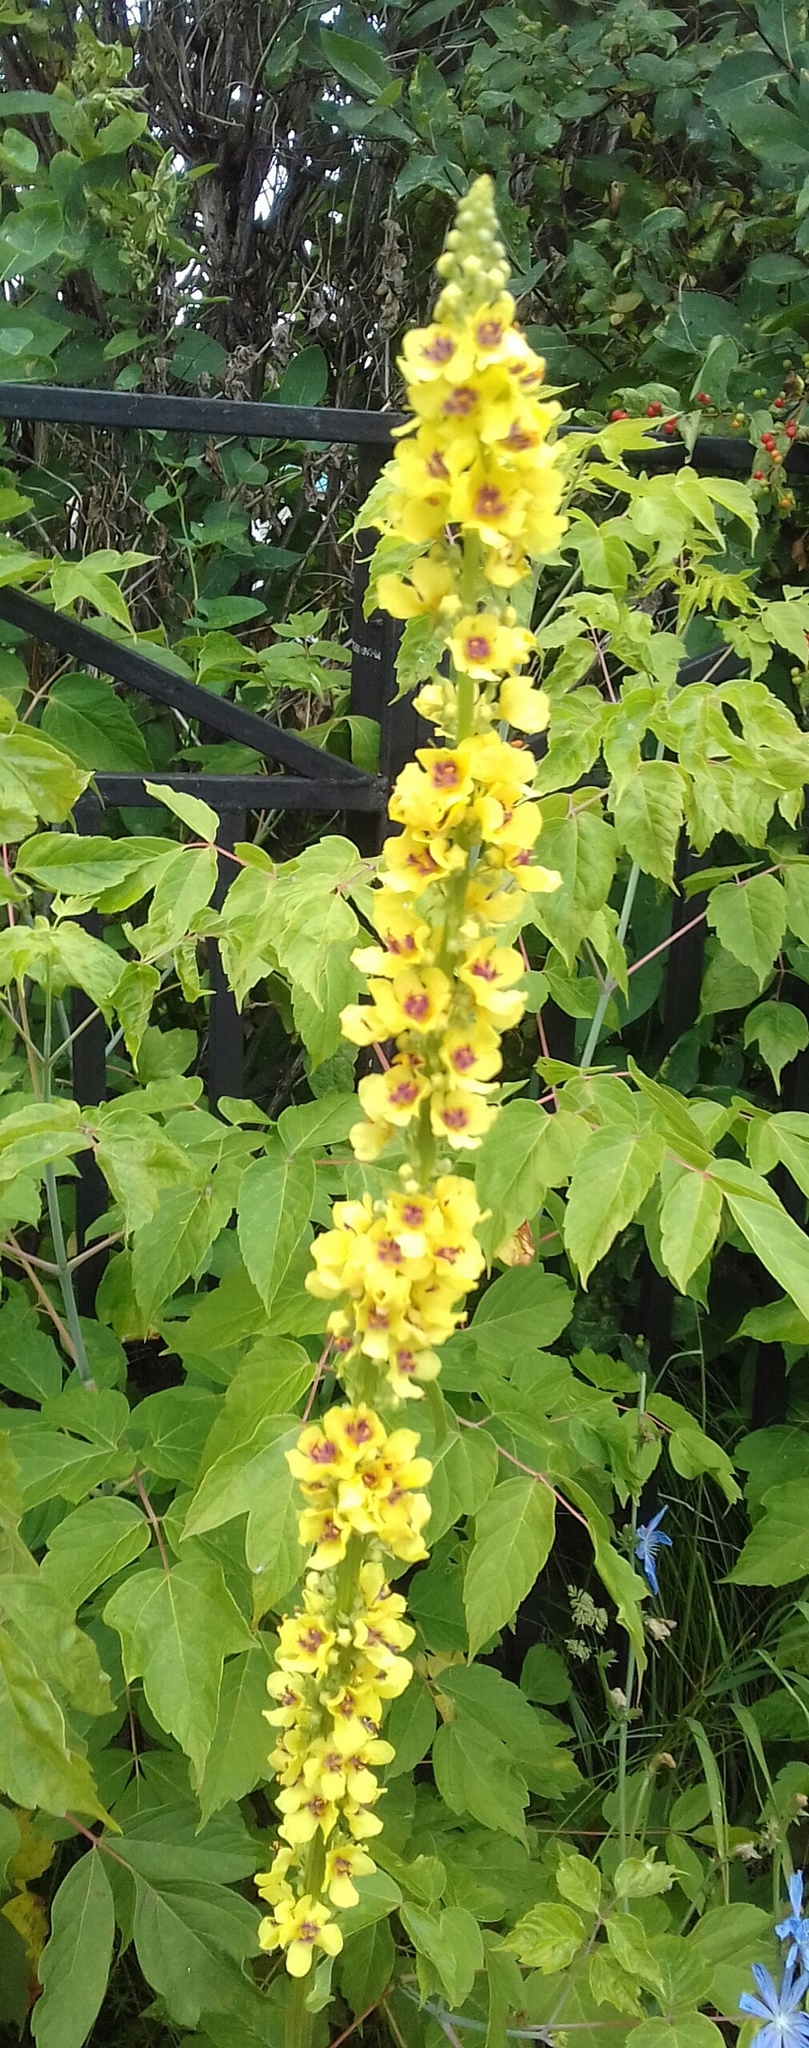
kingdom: Plantae
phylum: Tracheophyta
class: Magnoliopsida
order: Lamiales
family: Scrophulariaceae
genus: Verbascum
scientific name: Verbascum nigrum
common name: Dark mullein
